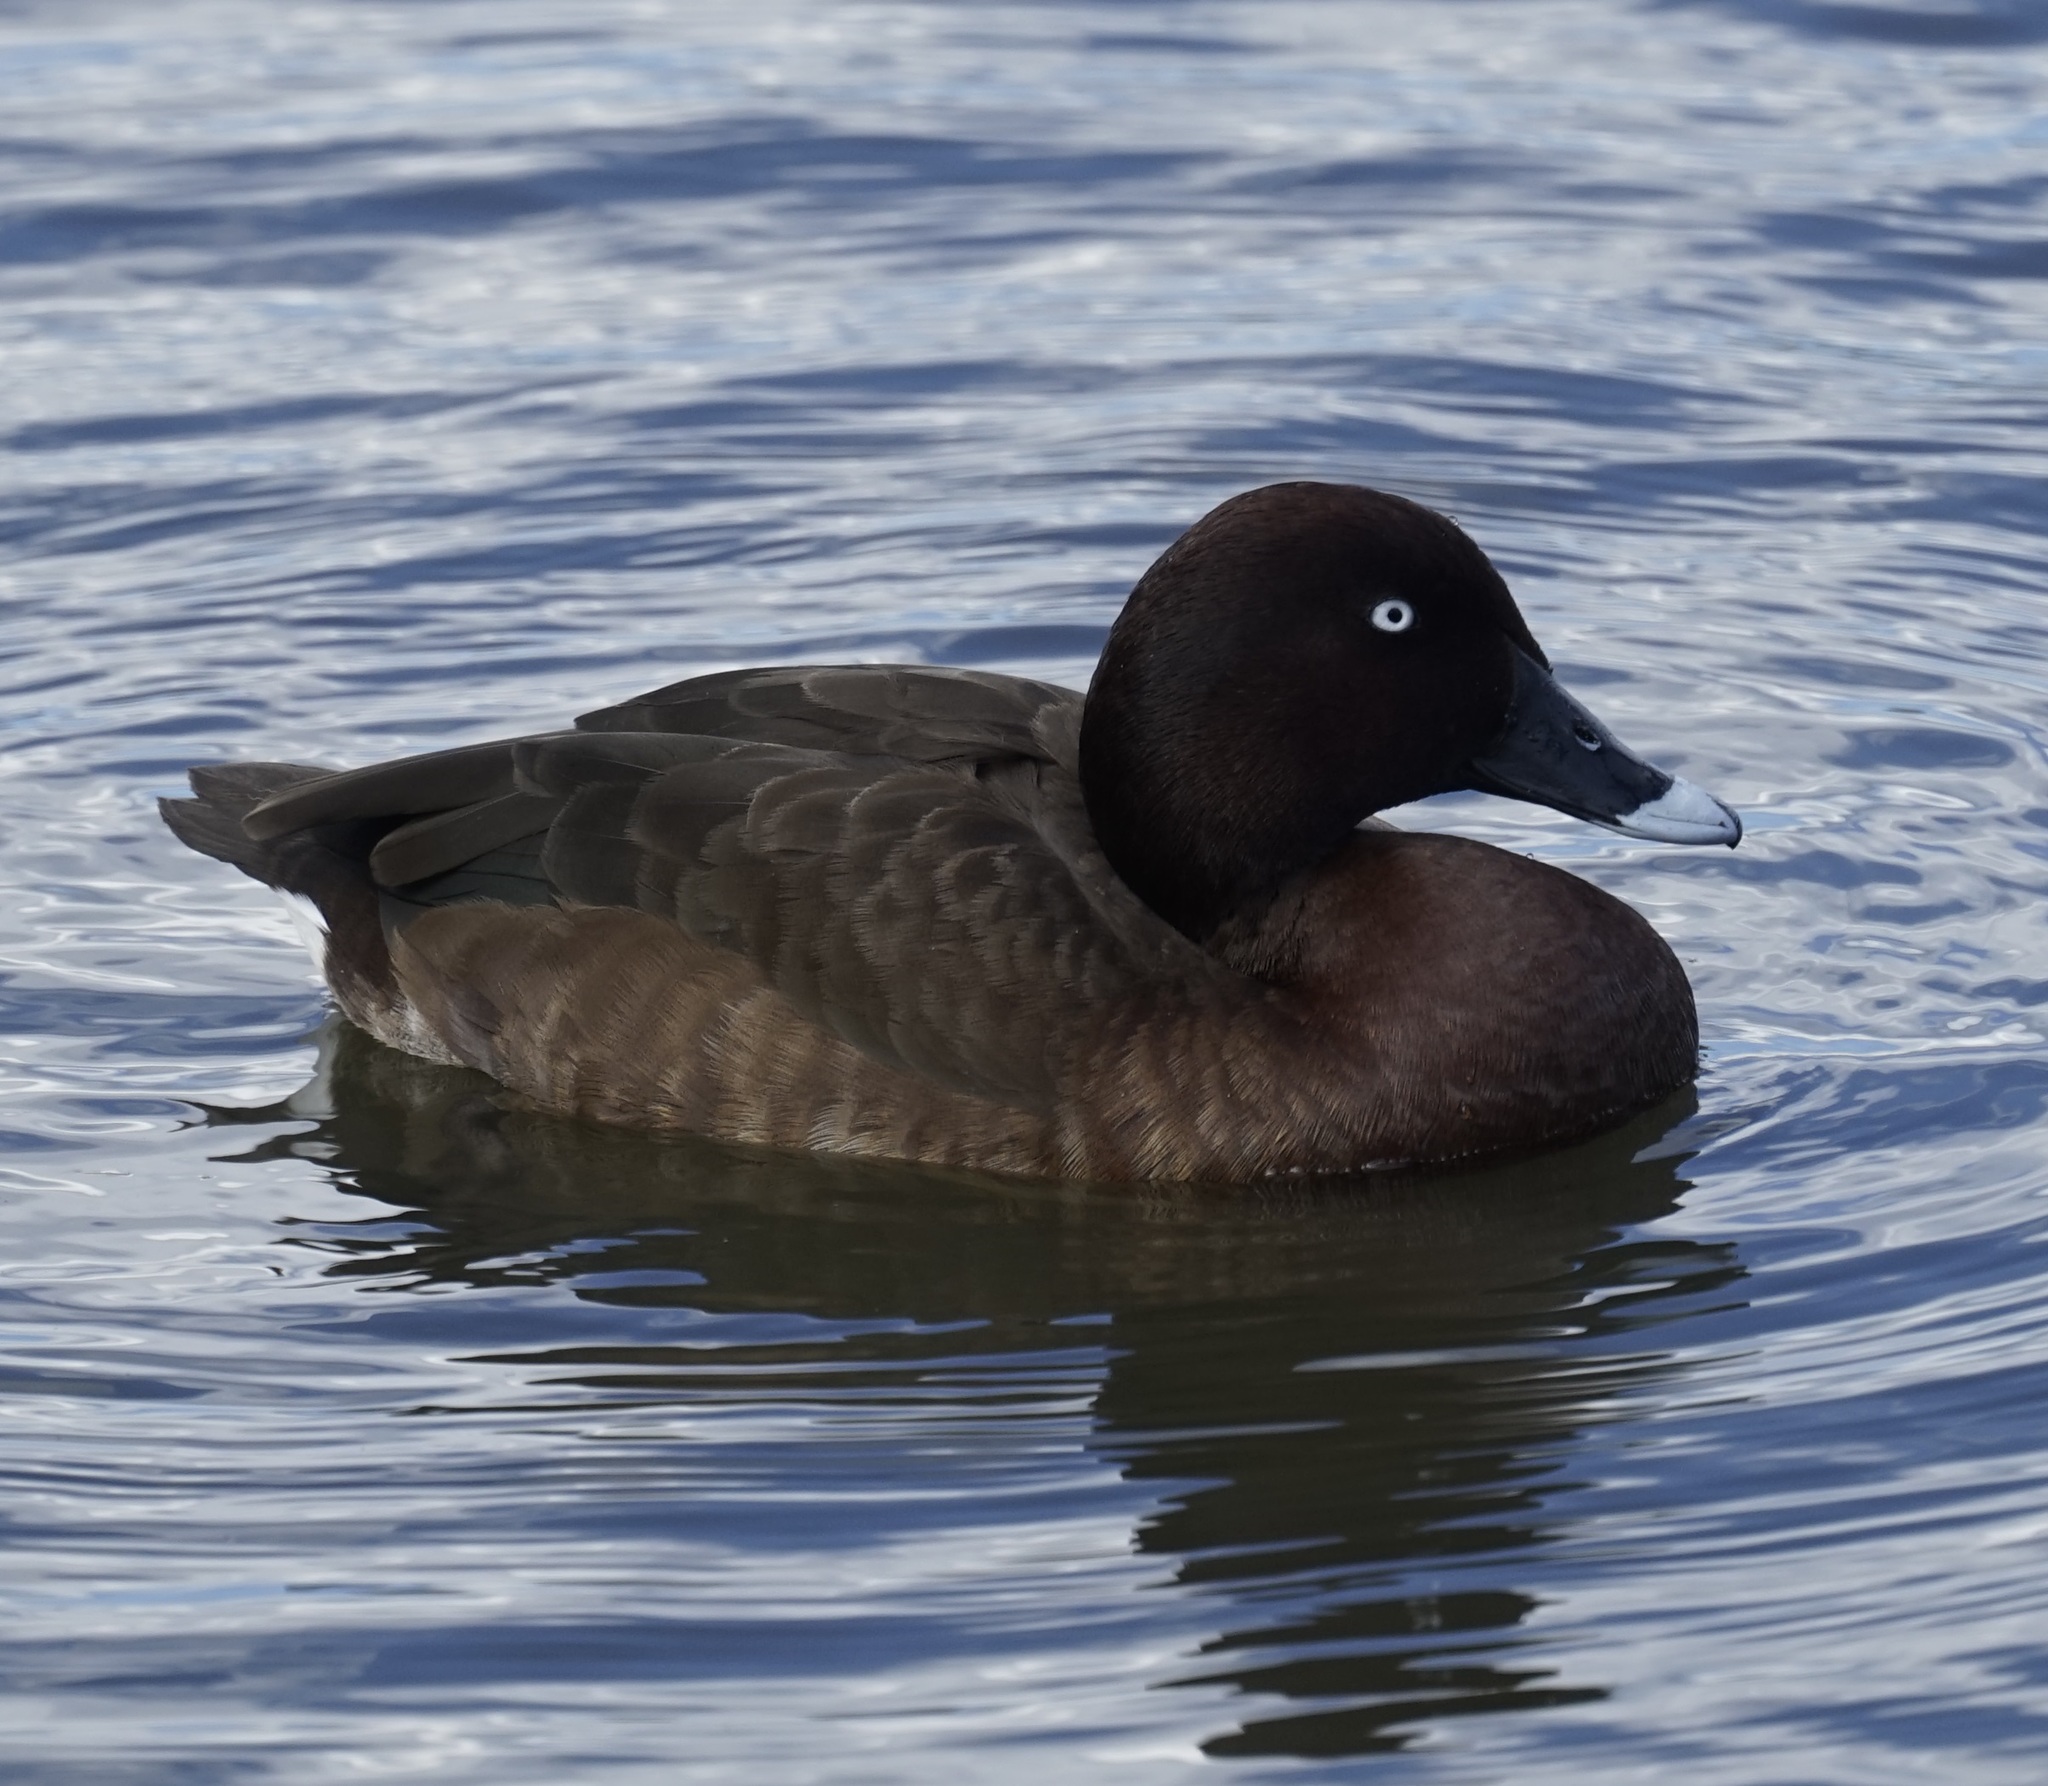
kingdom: Animalia
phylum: Chordata
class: Aves
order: Anseriformes
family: Anatidae
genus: Aythya
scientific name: Aythya australis
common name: Hardhead
